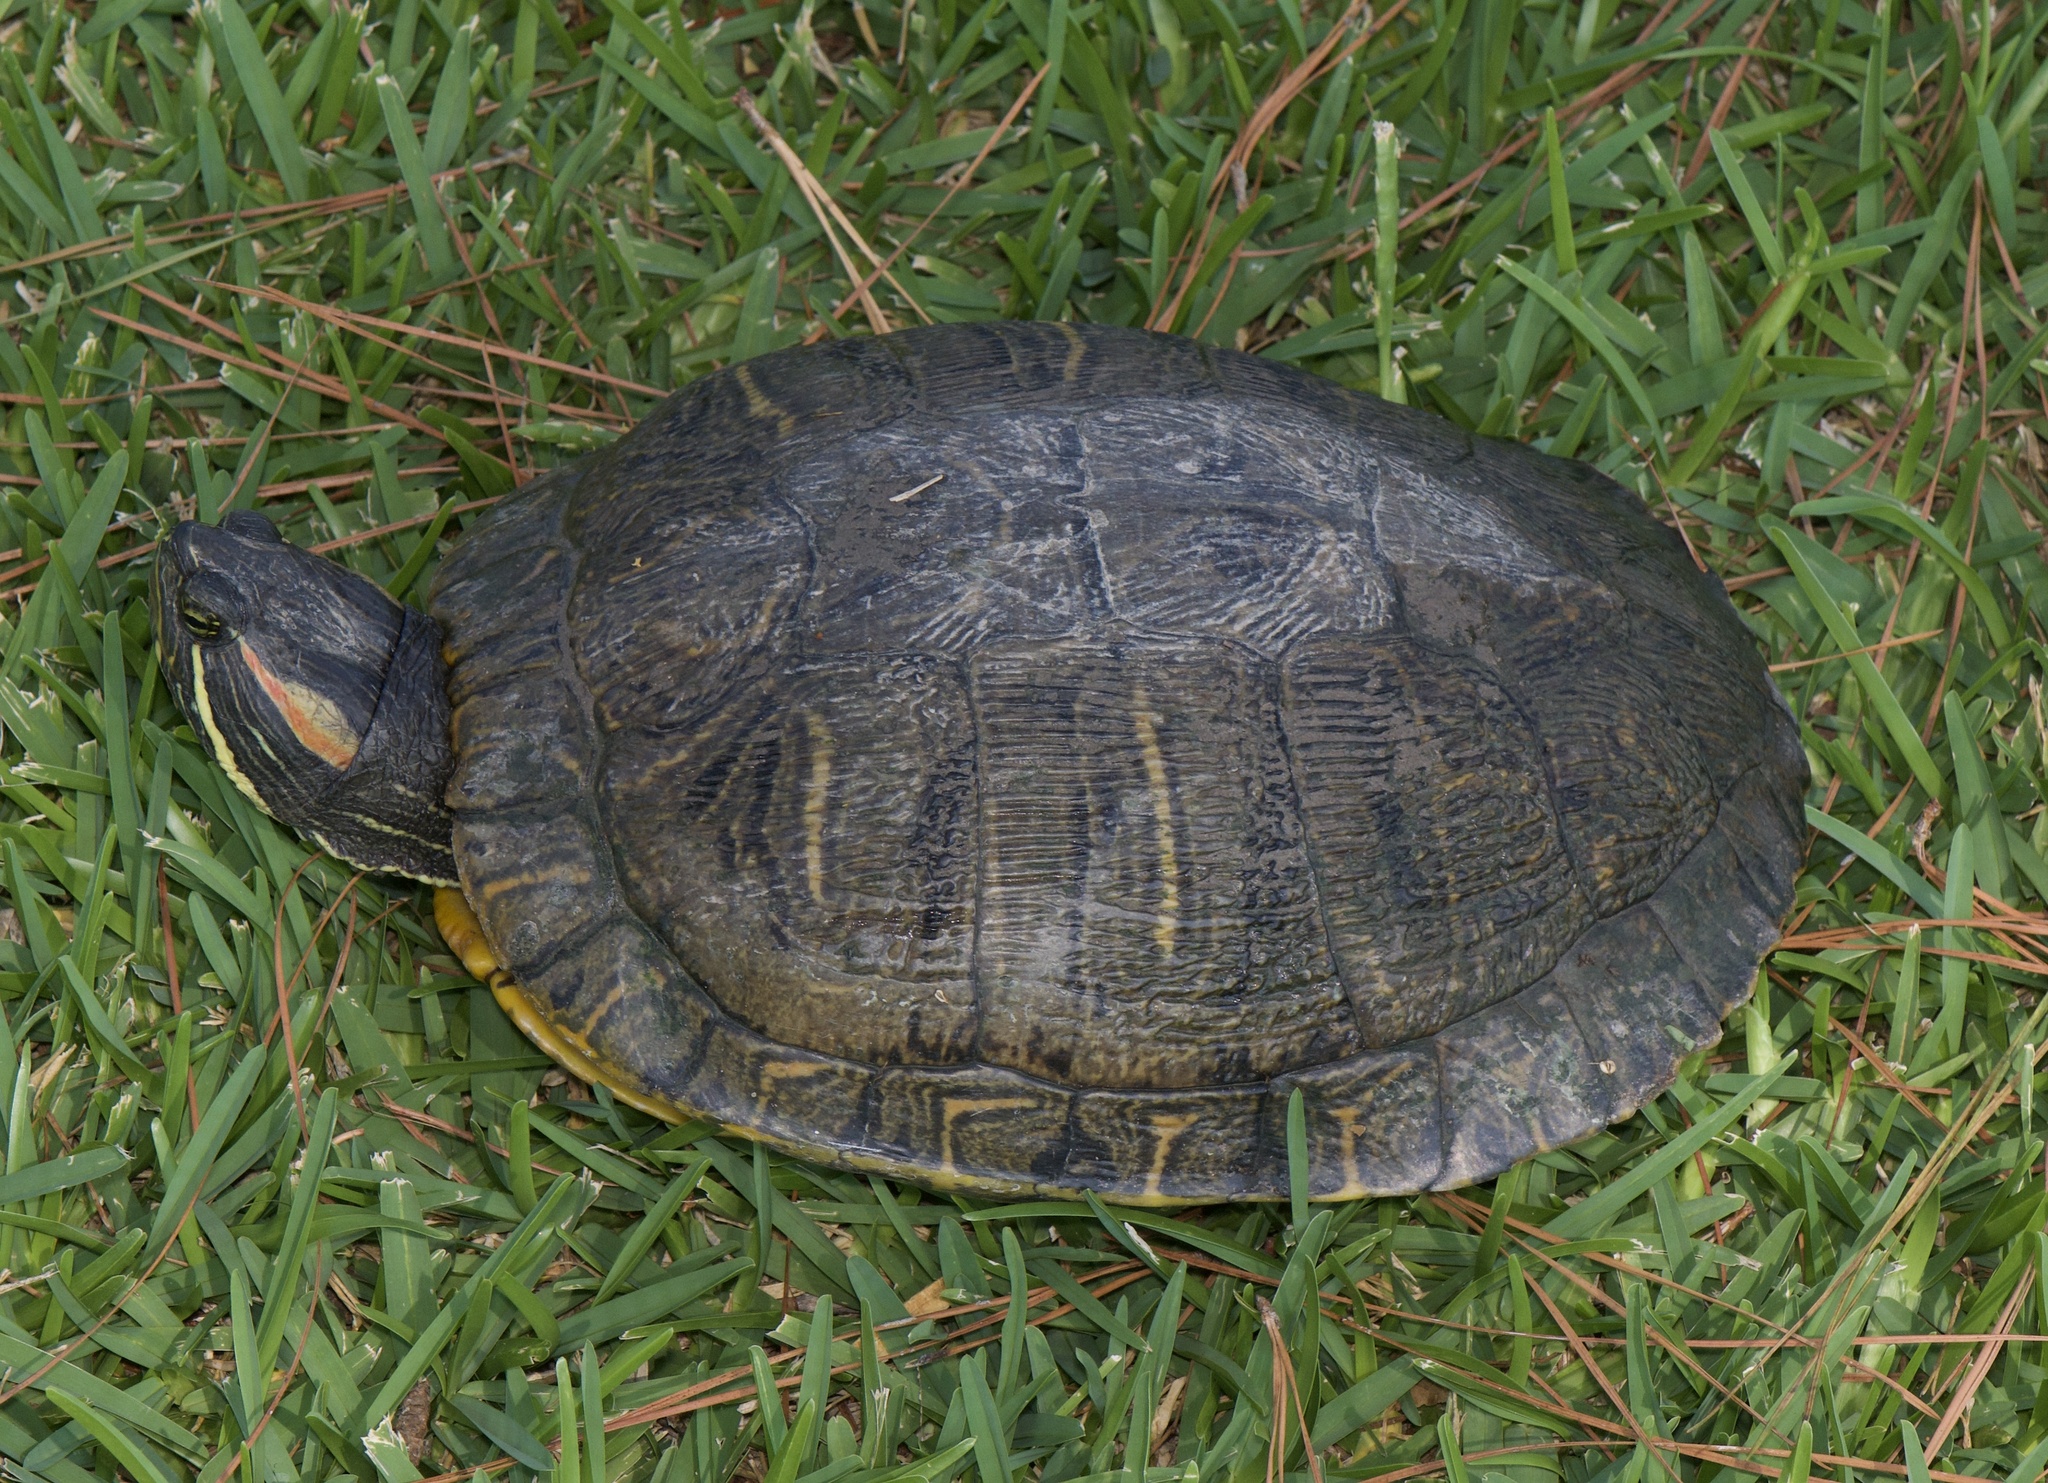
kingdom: Animalia
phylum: Chordata
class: Testudines
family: Emydidae
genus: Trachemys
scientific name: Trachemys scripta
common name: Slider
